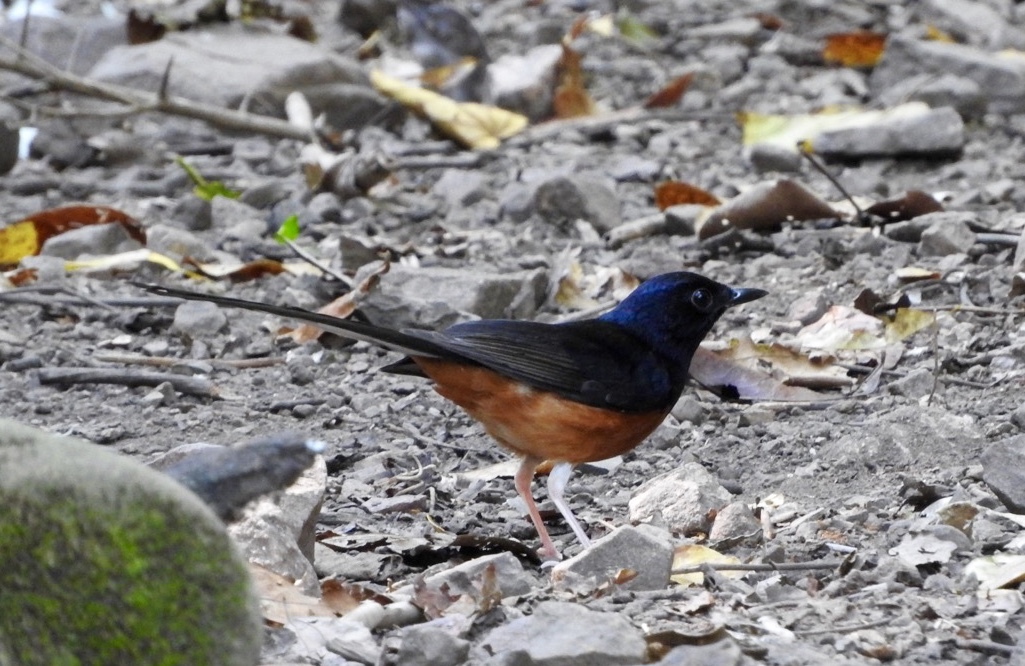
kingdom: Animalia
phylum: Chordata
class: Aves
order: Passeriformes
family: Muscicapidae
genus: Copsychus
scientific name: Copsychus malabaricus
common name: White-rumped shama
